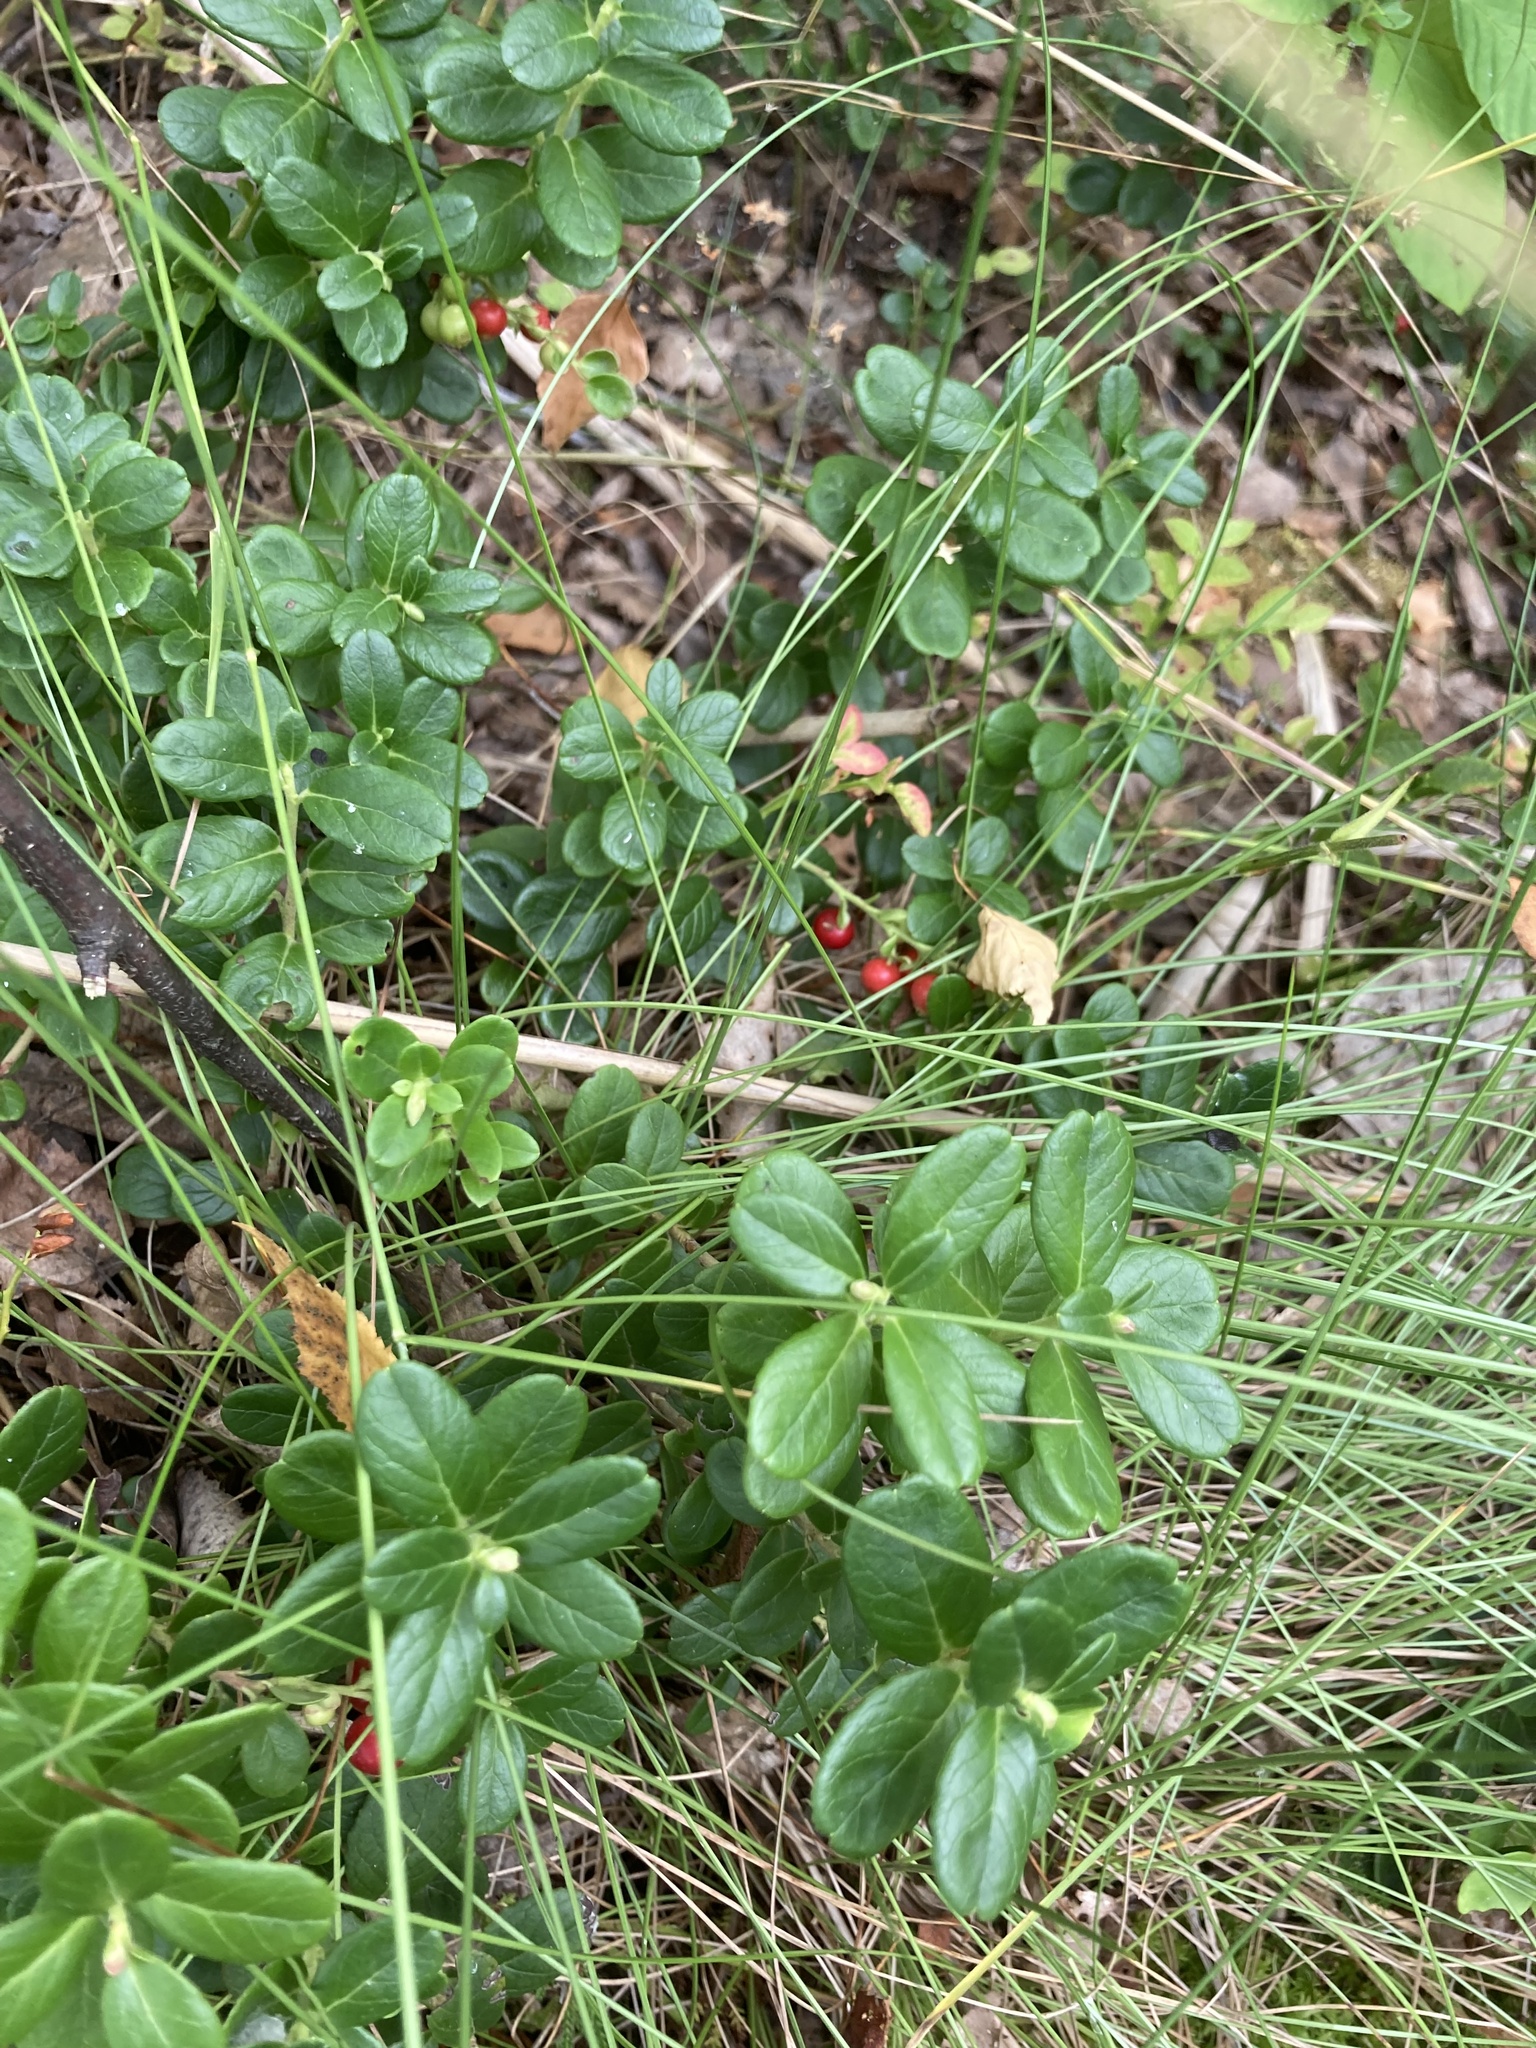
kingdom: Plantae
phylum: Tracheophyta
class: Magnoliopsida
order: Ericales
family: Ericaceae
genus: Vaccinium
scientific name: Vaccinium vitis-idaea
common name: Cowberry
